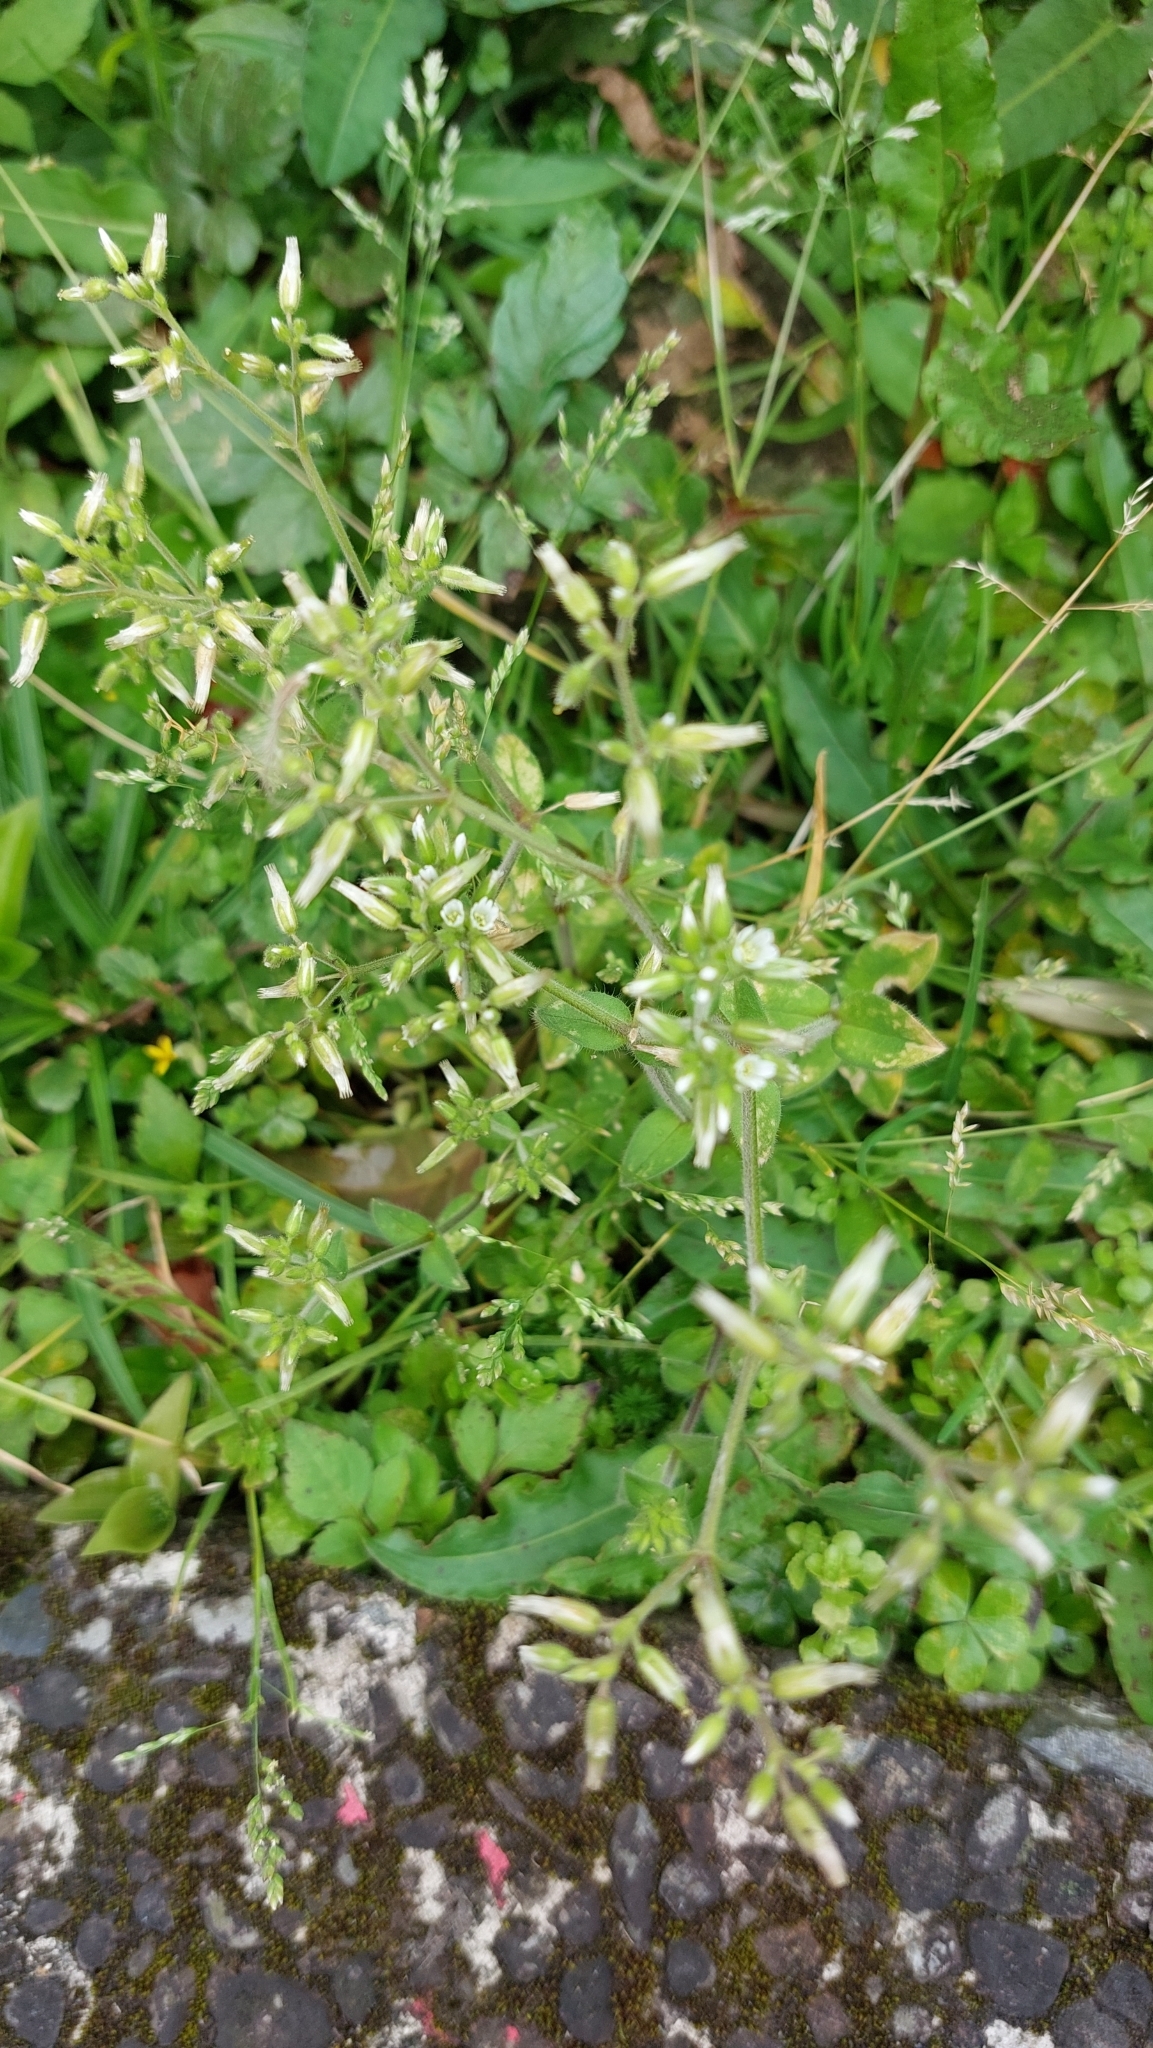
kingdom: Plantae
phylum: Tracheophyta
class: Magnoliopsida
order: Caryophyllales
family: Caryophyllaceae
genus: Cerastium
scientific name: Cerastium glomeratum
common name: Sticky chickweed
